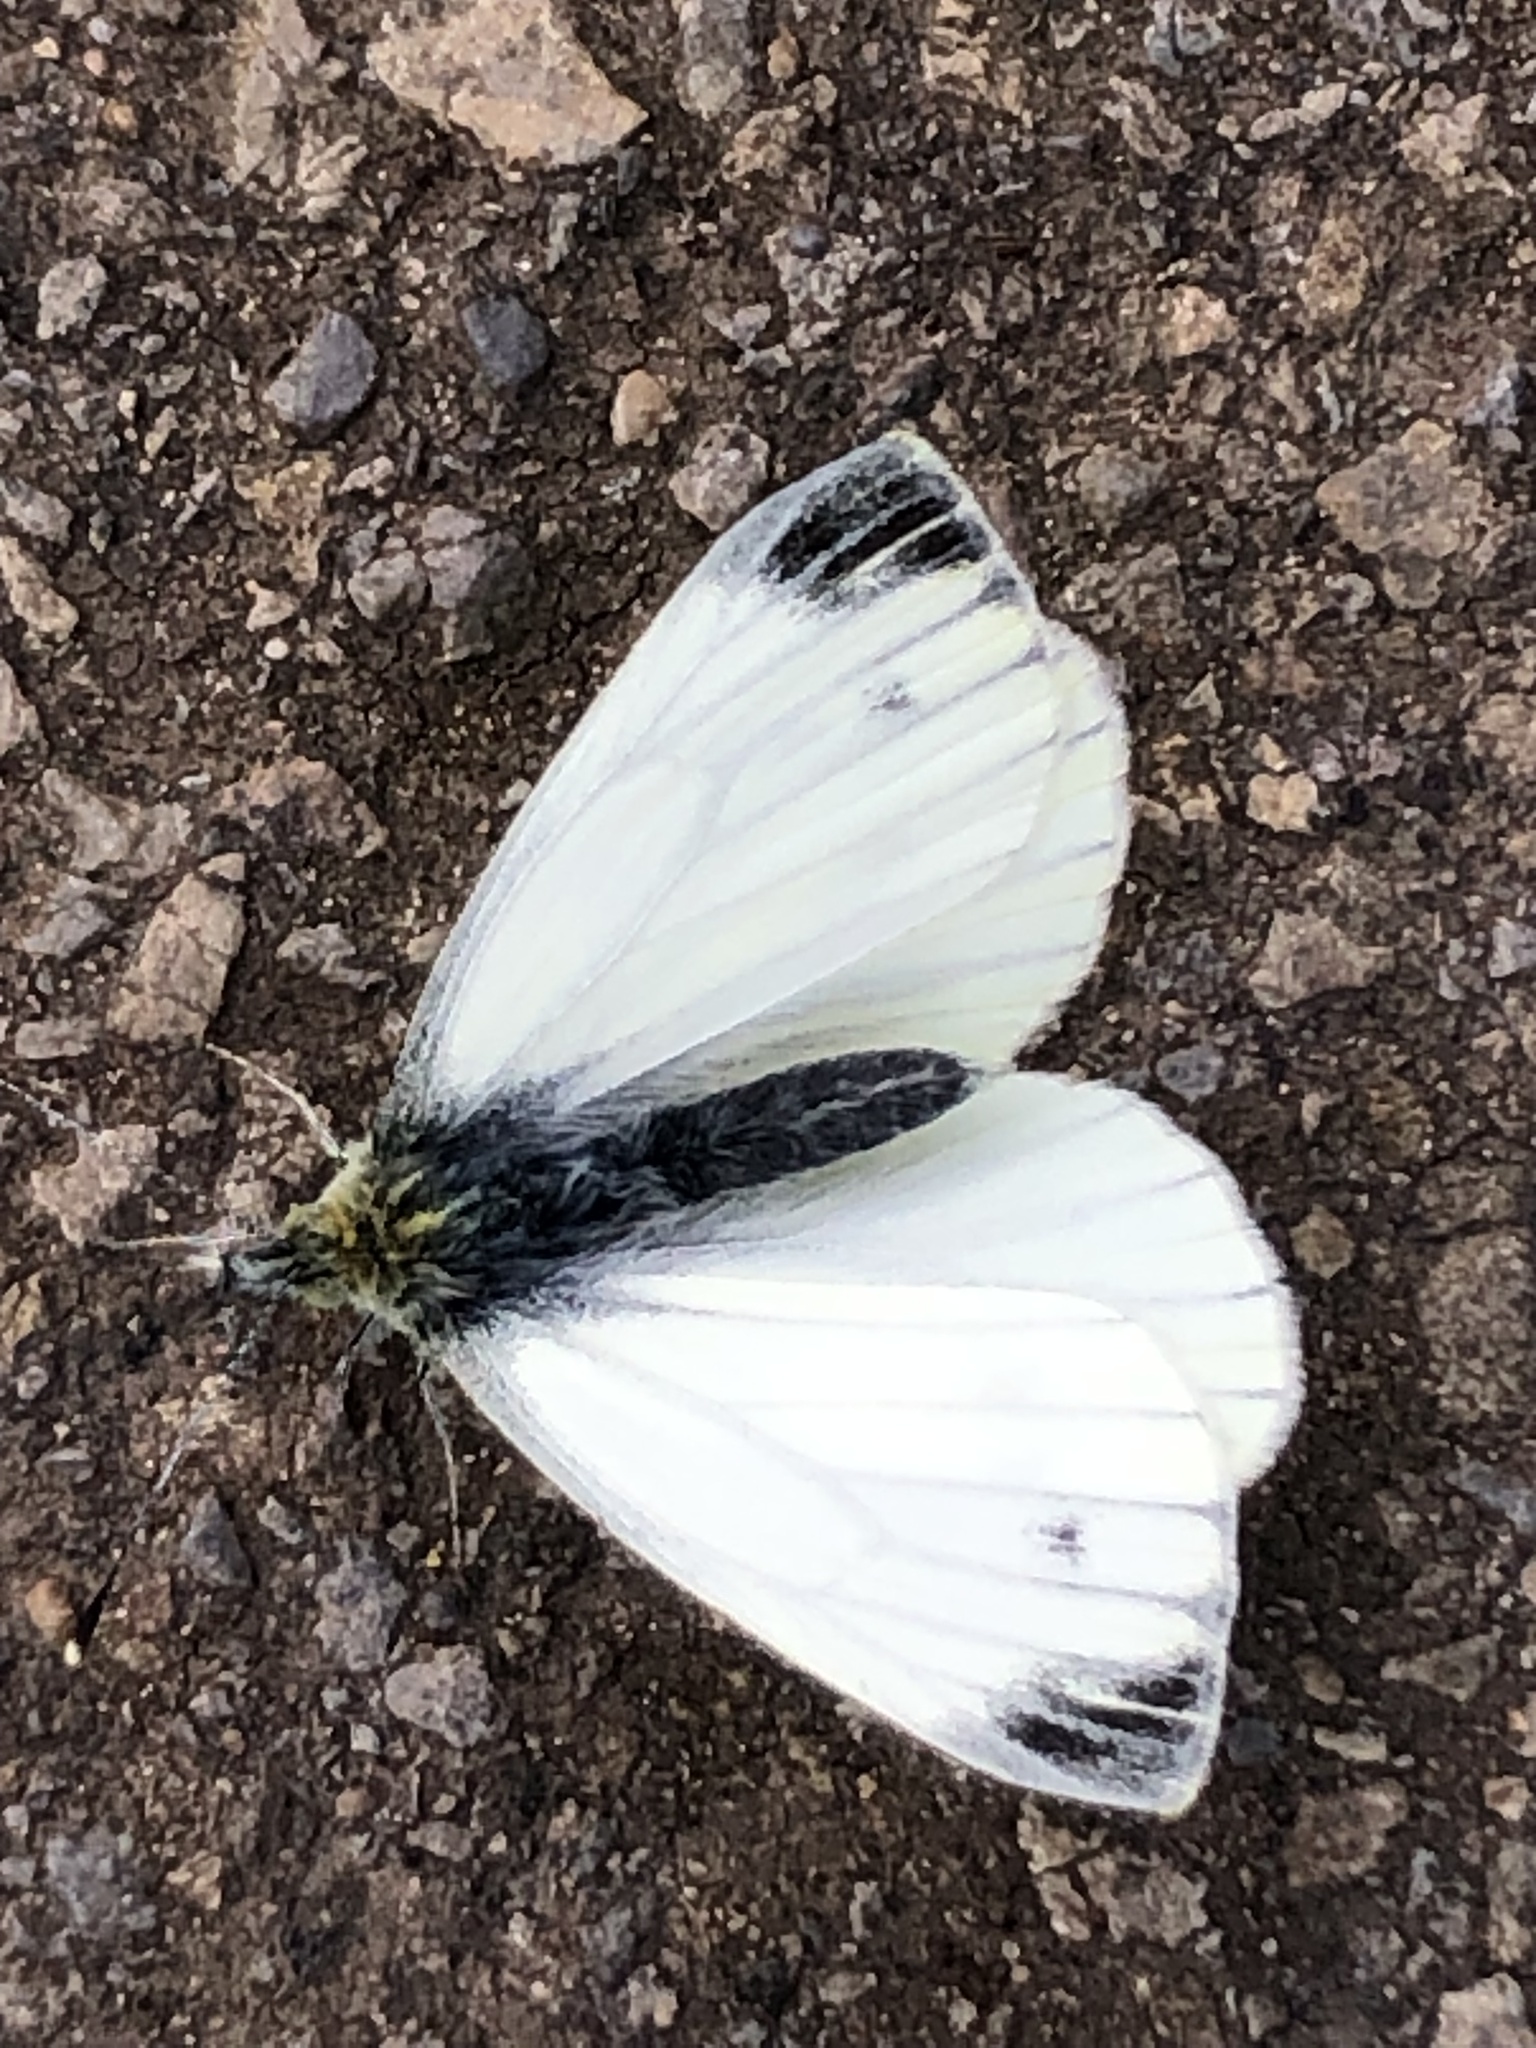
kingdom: Animalia
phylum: Arthropoda
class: Insecta
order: Lepidoptera
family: Pieridae
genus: Pieris
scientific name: Pieris napi
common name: Green-veined white
